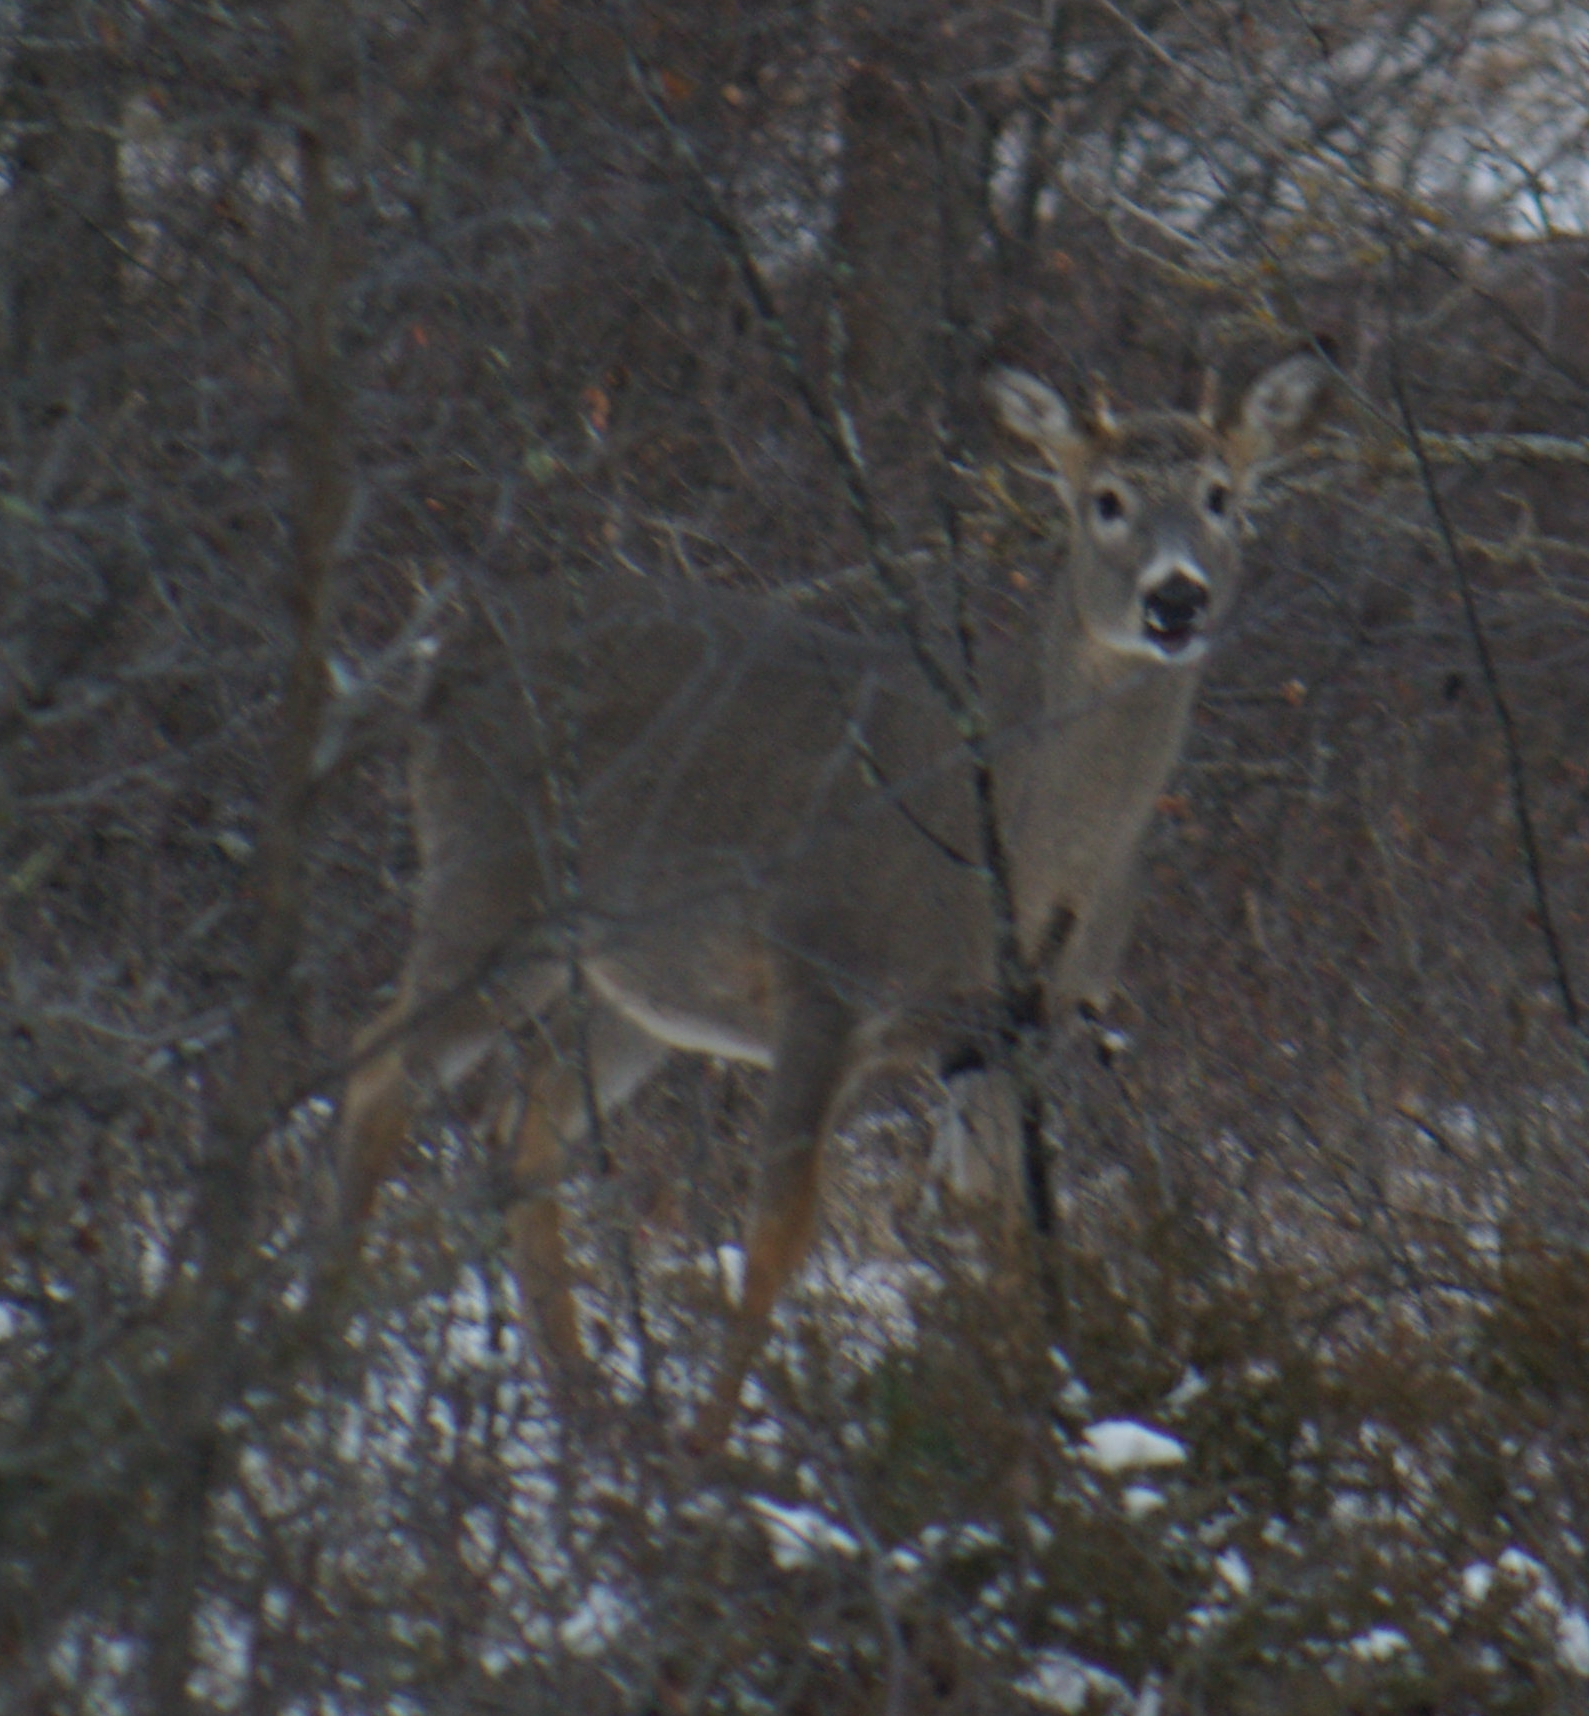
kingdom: Animalia
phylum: Chordata
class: Mammalia
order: Artiodactyla
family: Cervidae
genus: Odocoileus
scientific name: Odocoileus virginianus
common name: White-tailed deer
